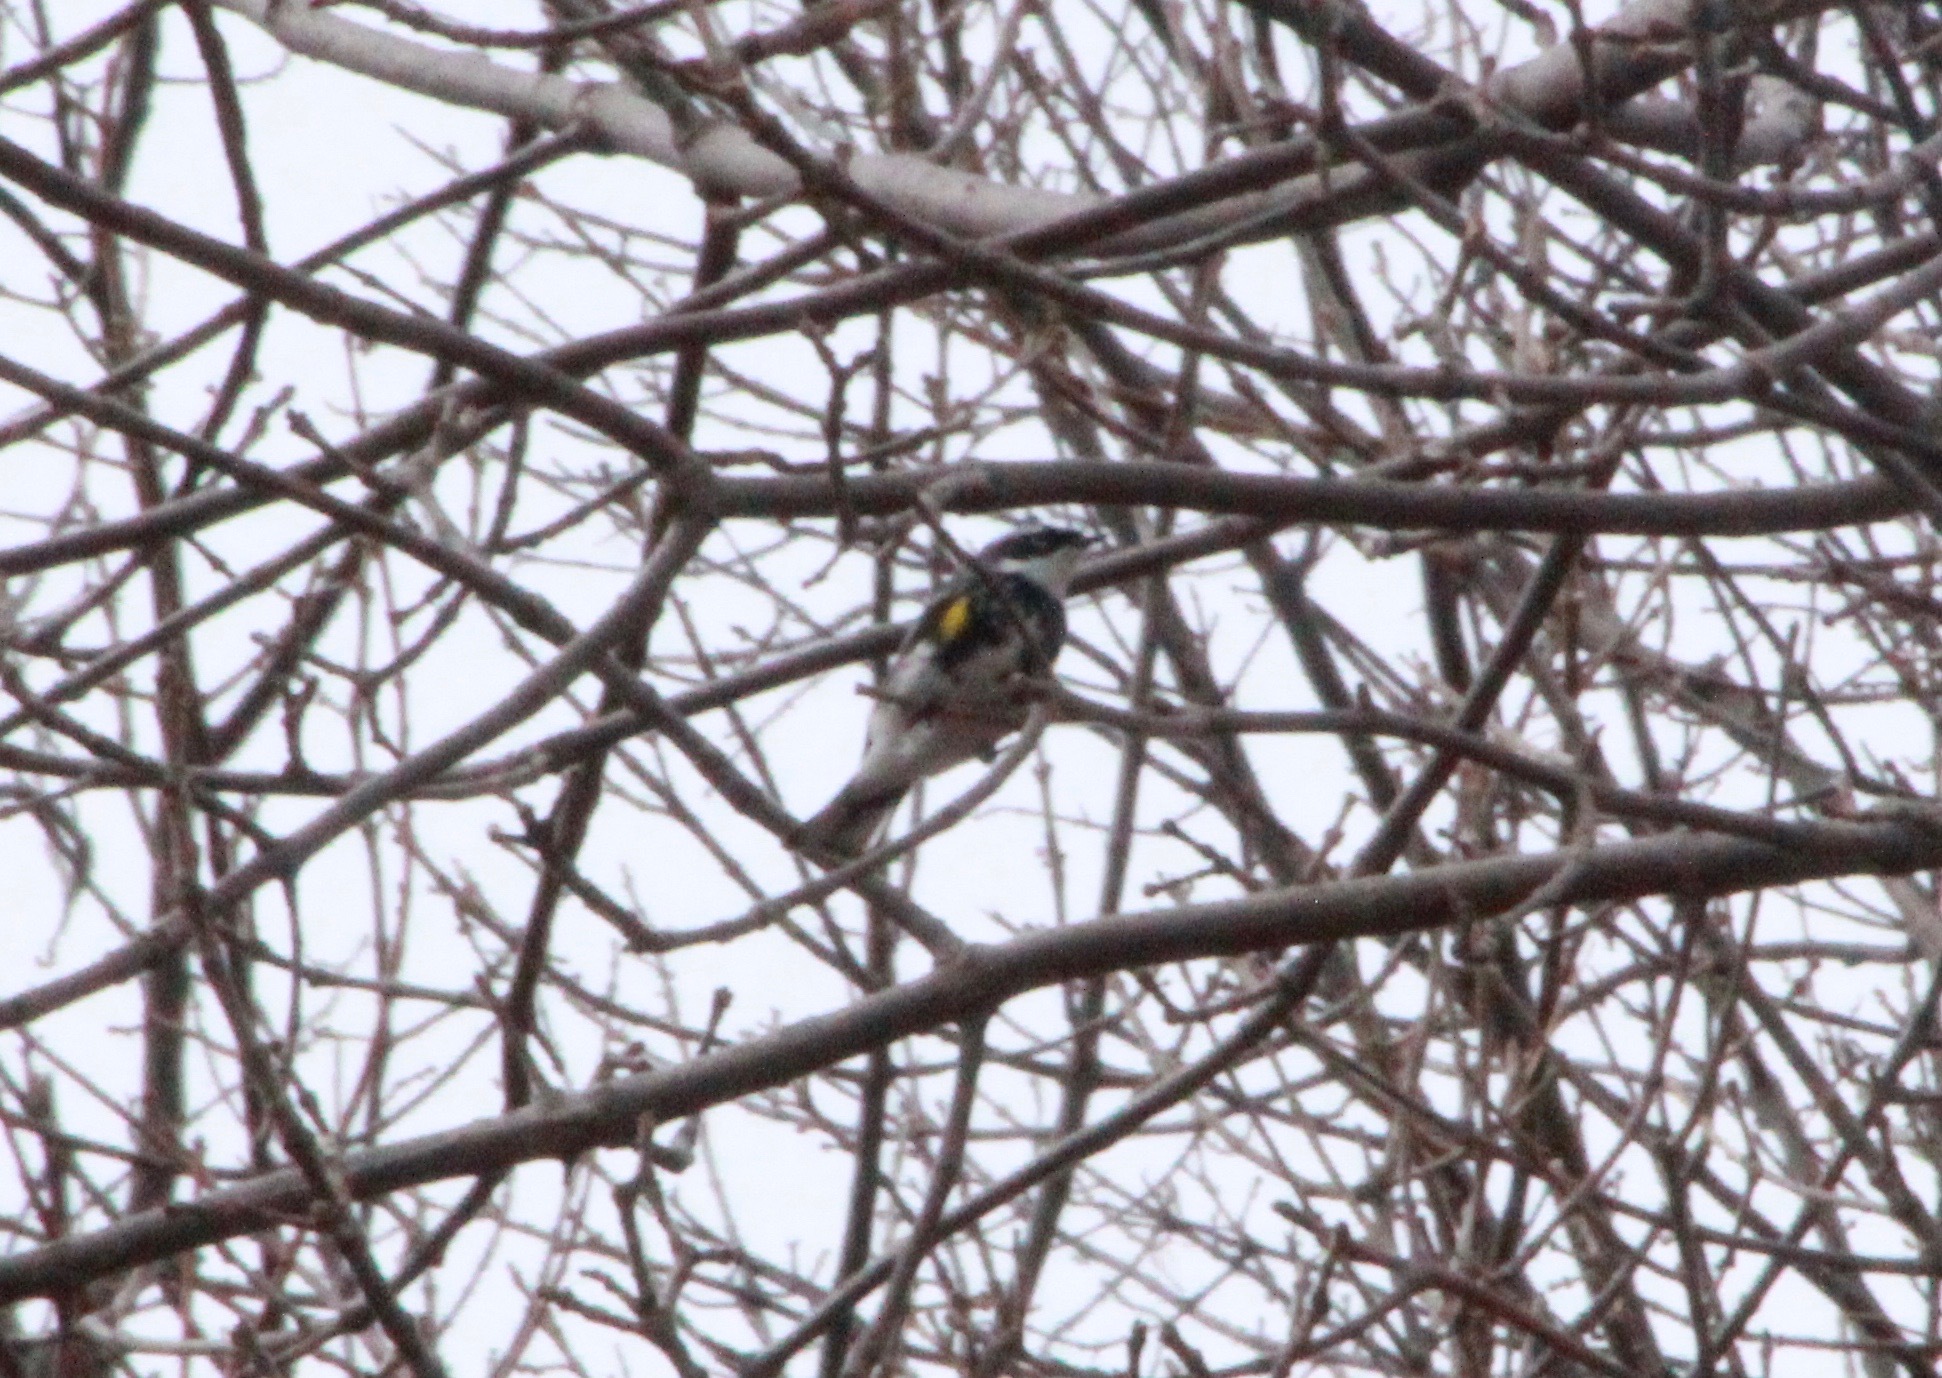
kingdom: Animalia
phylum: Chordata
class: Aves
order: Passeriformes
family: Parulidae
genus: Setophaga
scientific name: Setophaga coronata
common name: Myrtle warbler
